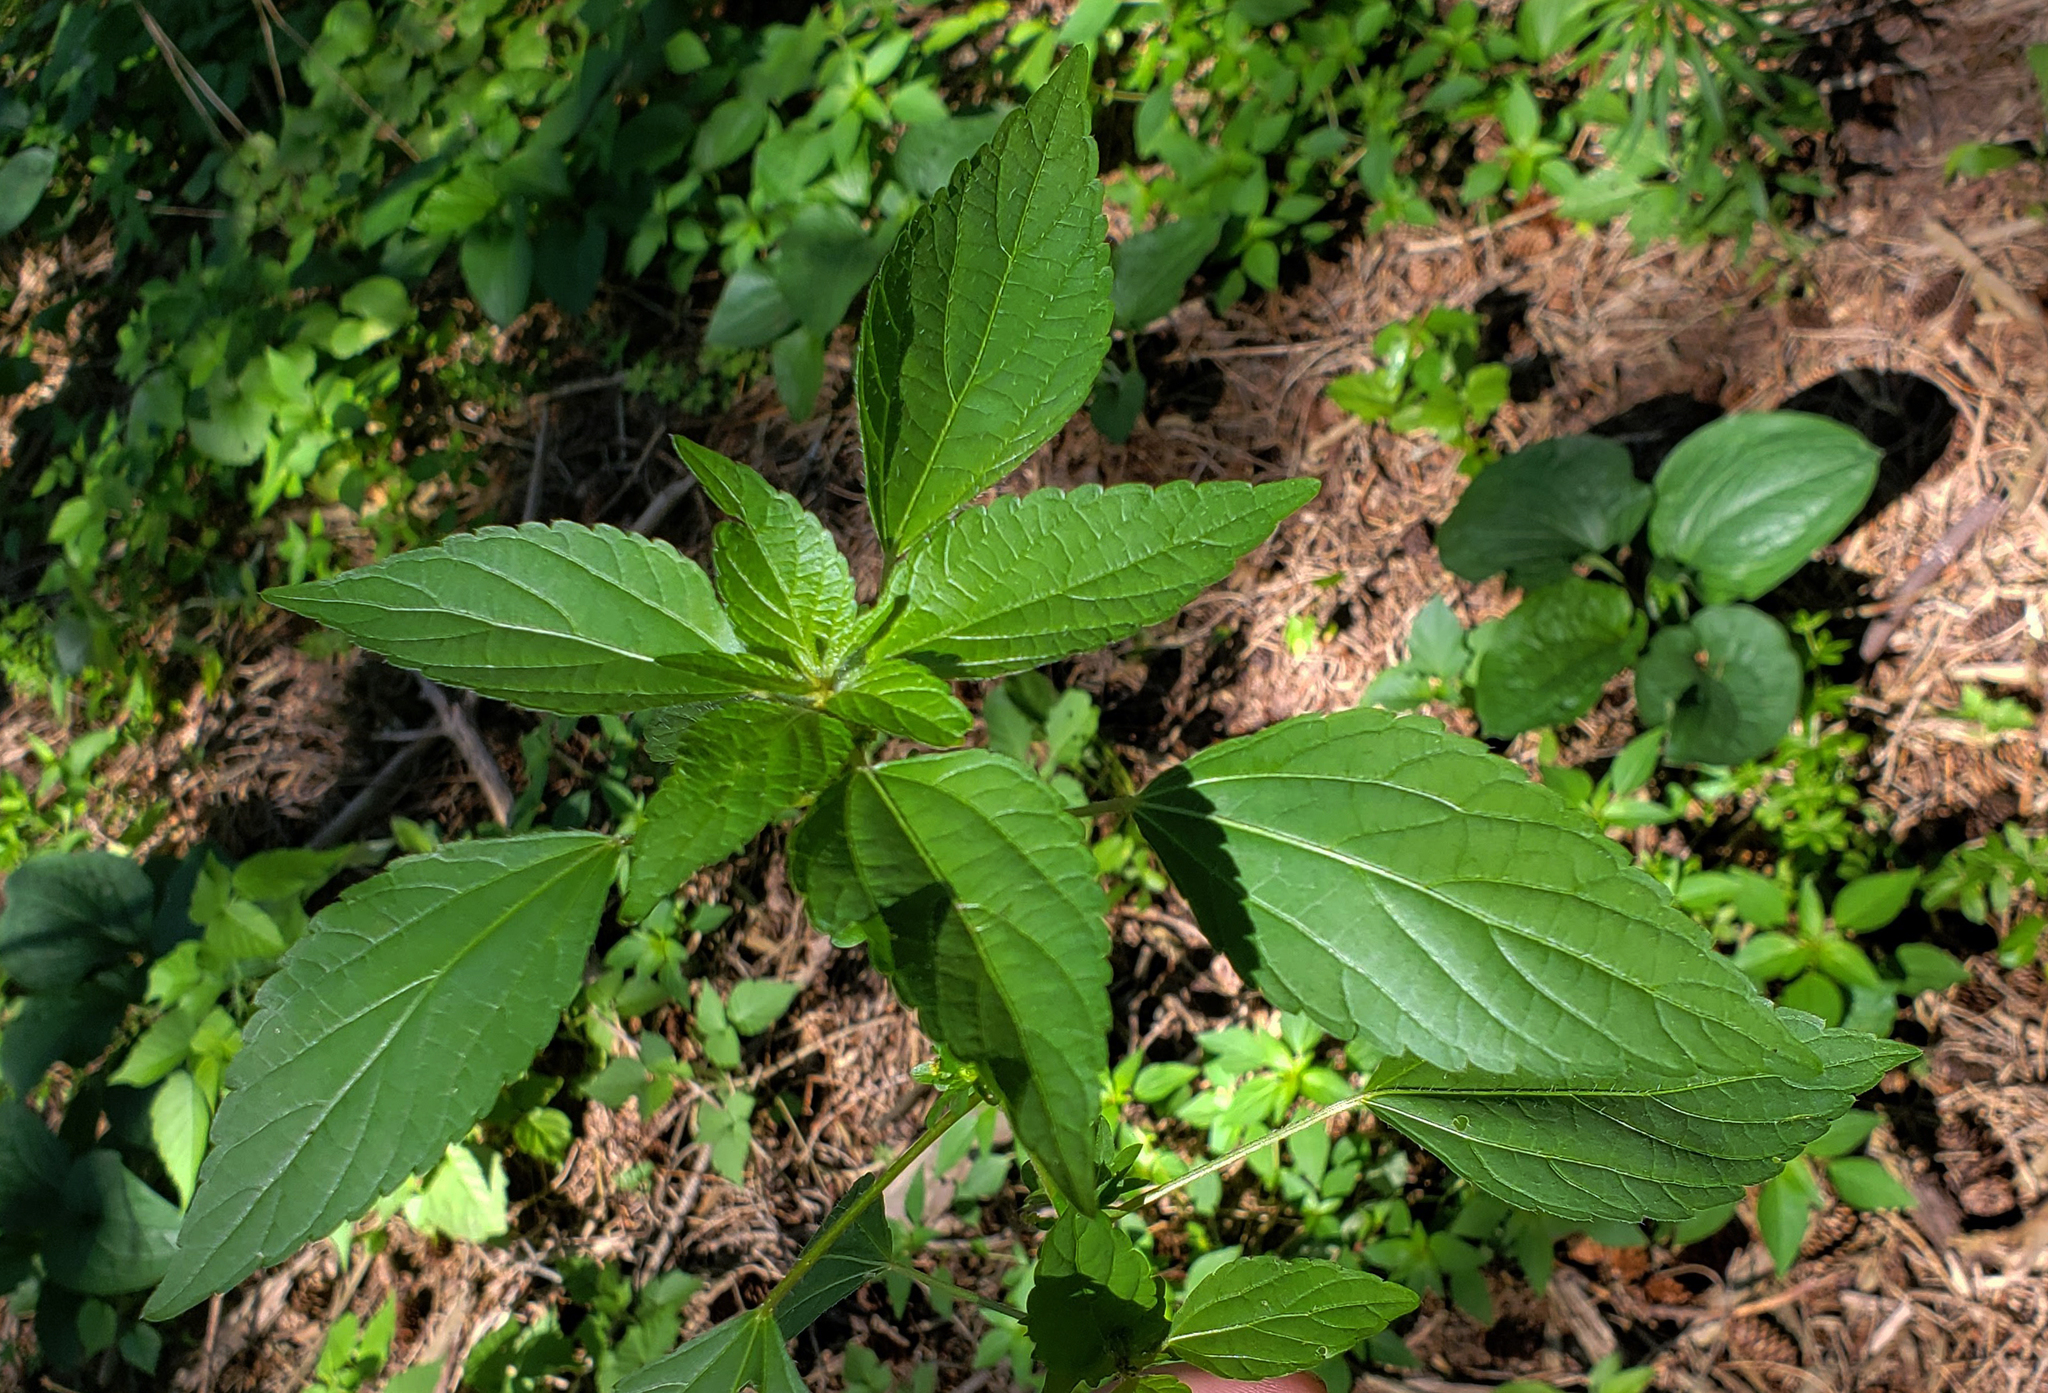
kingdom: Plantae
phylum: Tracheophyta
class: Magnoliopsida
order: Malpighiales
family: Euphorbiaceae
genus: Acalypha
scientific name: Acalypha rhomboidea
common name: Rhombic copperleaf
